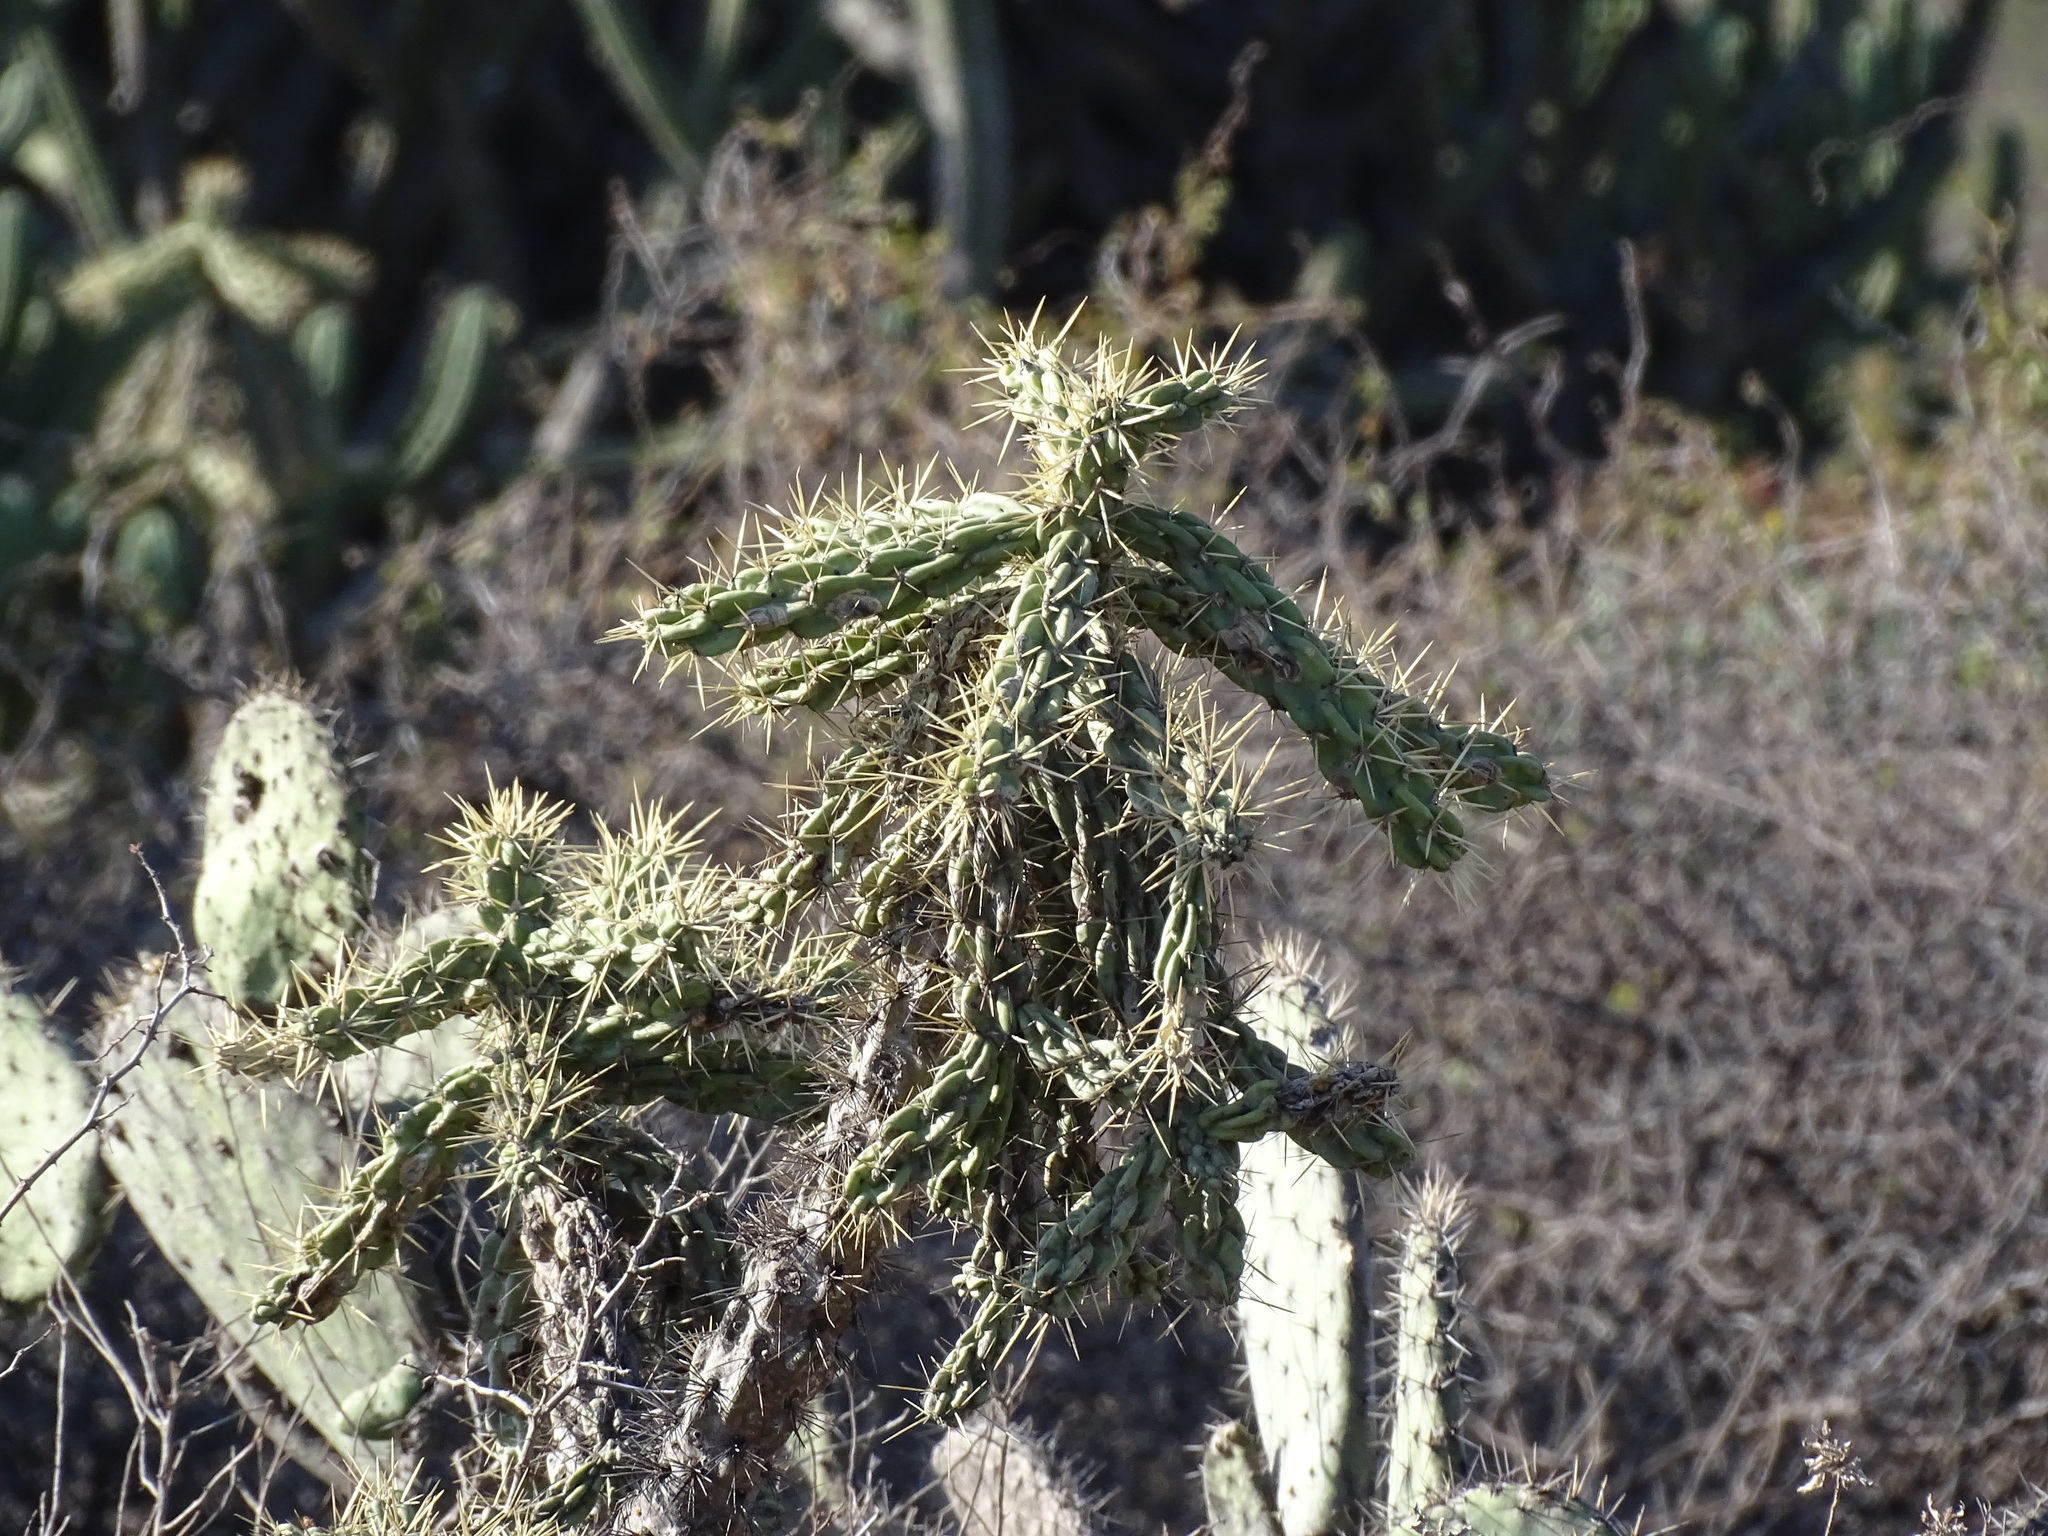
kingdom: Plantae
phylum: Tracheophyta
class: Magnoliopsida
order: Caryophyllales
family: Cactaceae
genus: Cylindropuntia
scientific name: Cylindropuntia imbricata
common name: Candelabrum cactus
